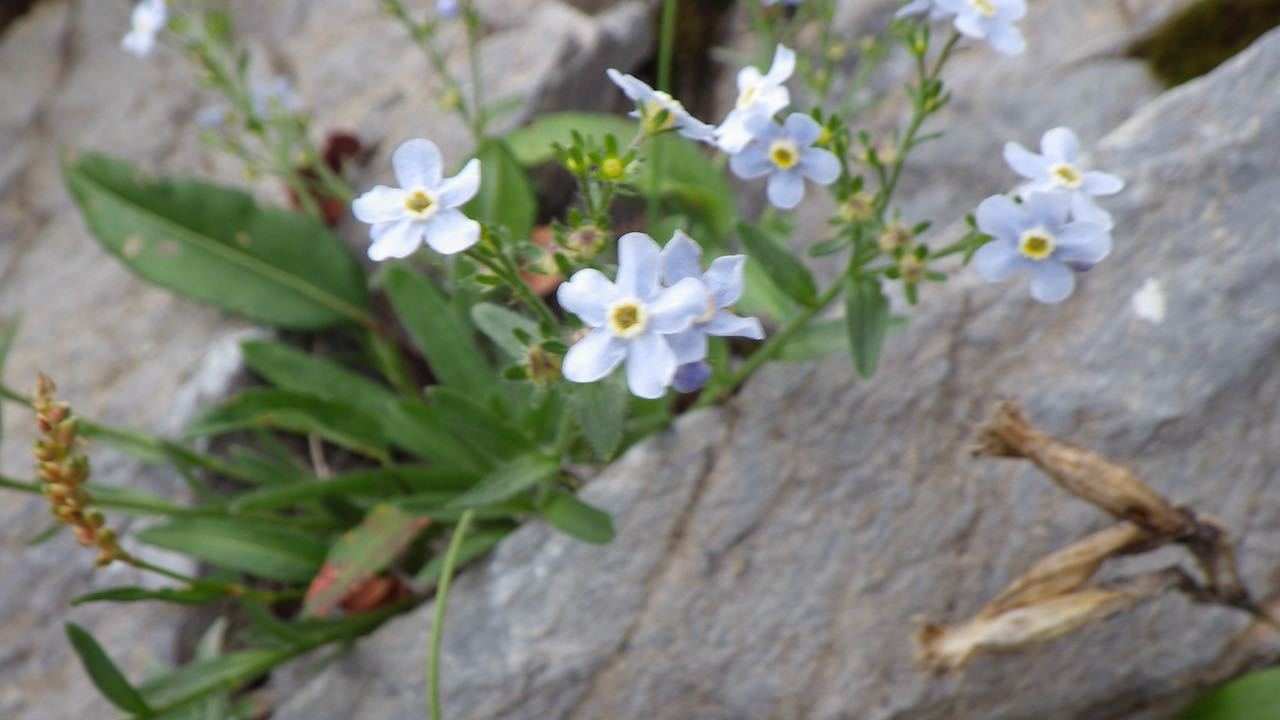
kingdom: Plantae
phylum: Tracheophyta
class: Magnoliopsida
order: Boraginales
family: Boraginaceae
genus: Eritrichium
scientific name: Eritrichium nipponicum
